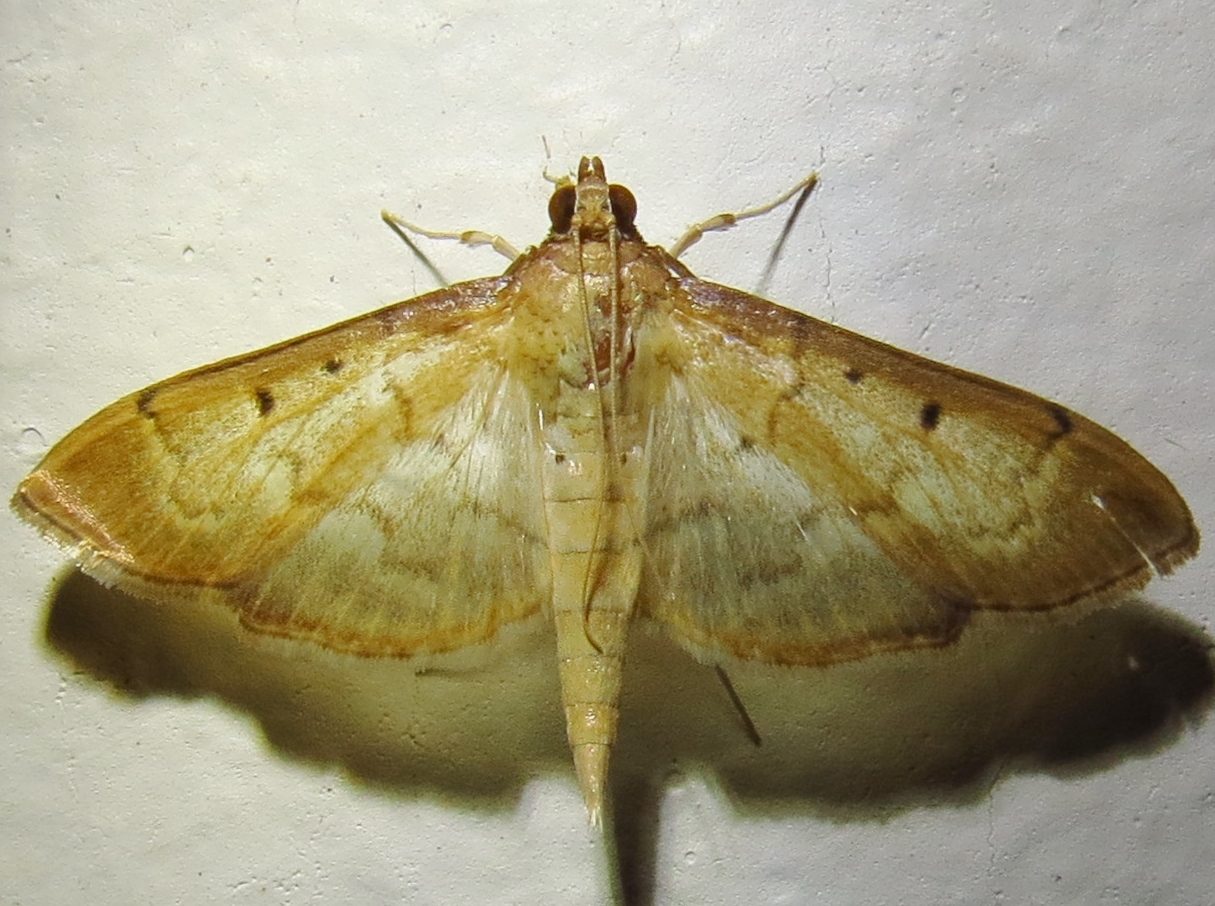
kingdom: Animalia
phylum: Arthropoda
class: Insecta
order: Lepidoptera
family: Crambidae
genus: Herpetogramma
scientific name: Herpetogramma bipunctalis
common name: Southern beet webworm
